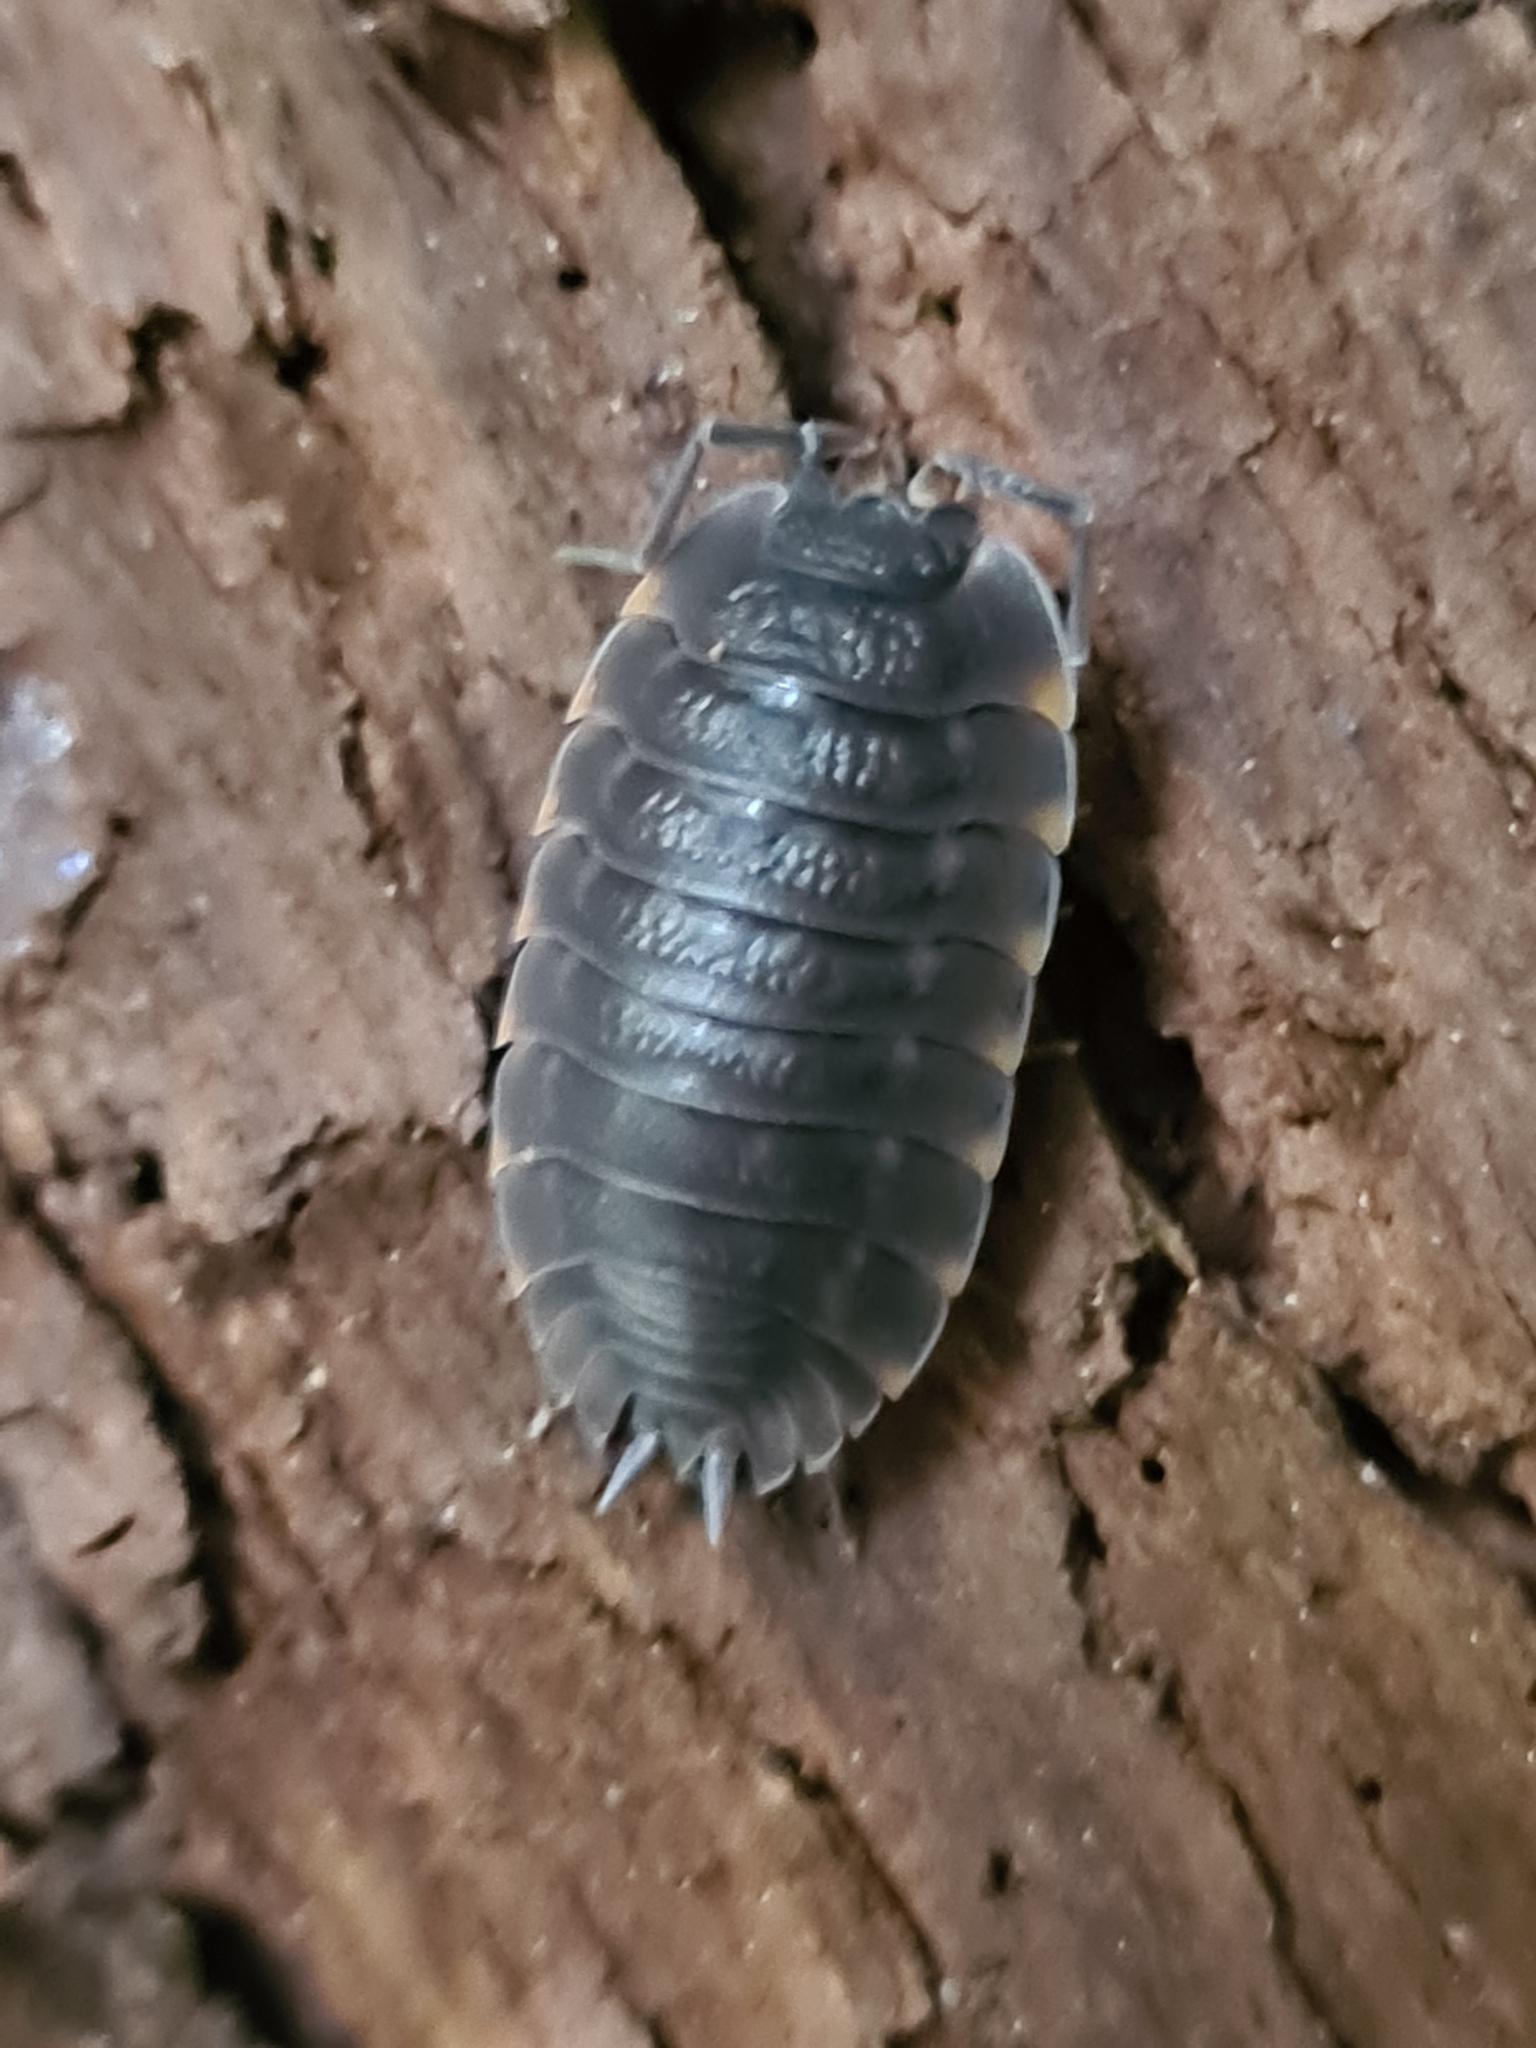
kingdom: Animalia
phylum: Arthropoda
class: Malacostraca
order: Isopoda
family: Trachelipodidae
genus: Trachelipus
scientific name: Trachelipus ratzeburgii
